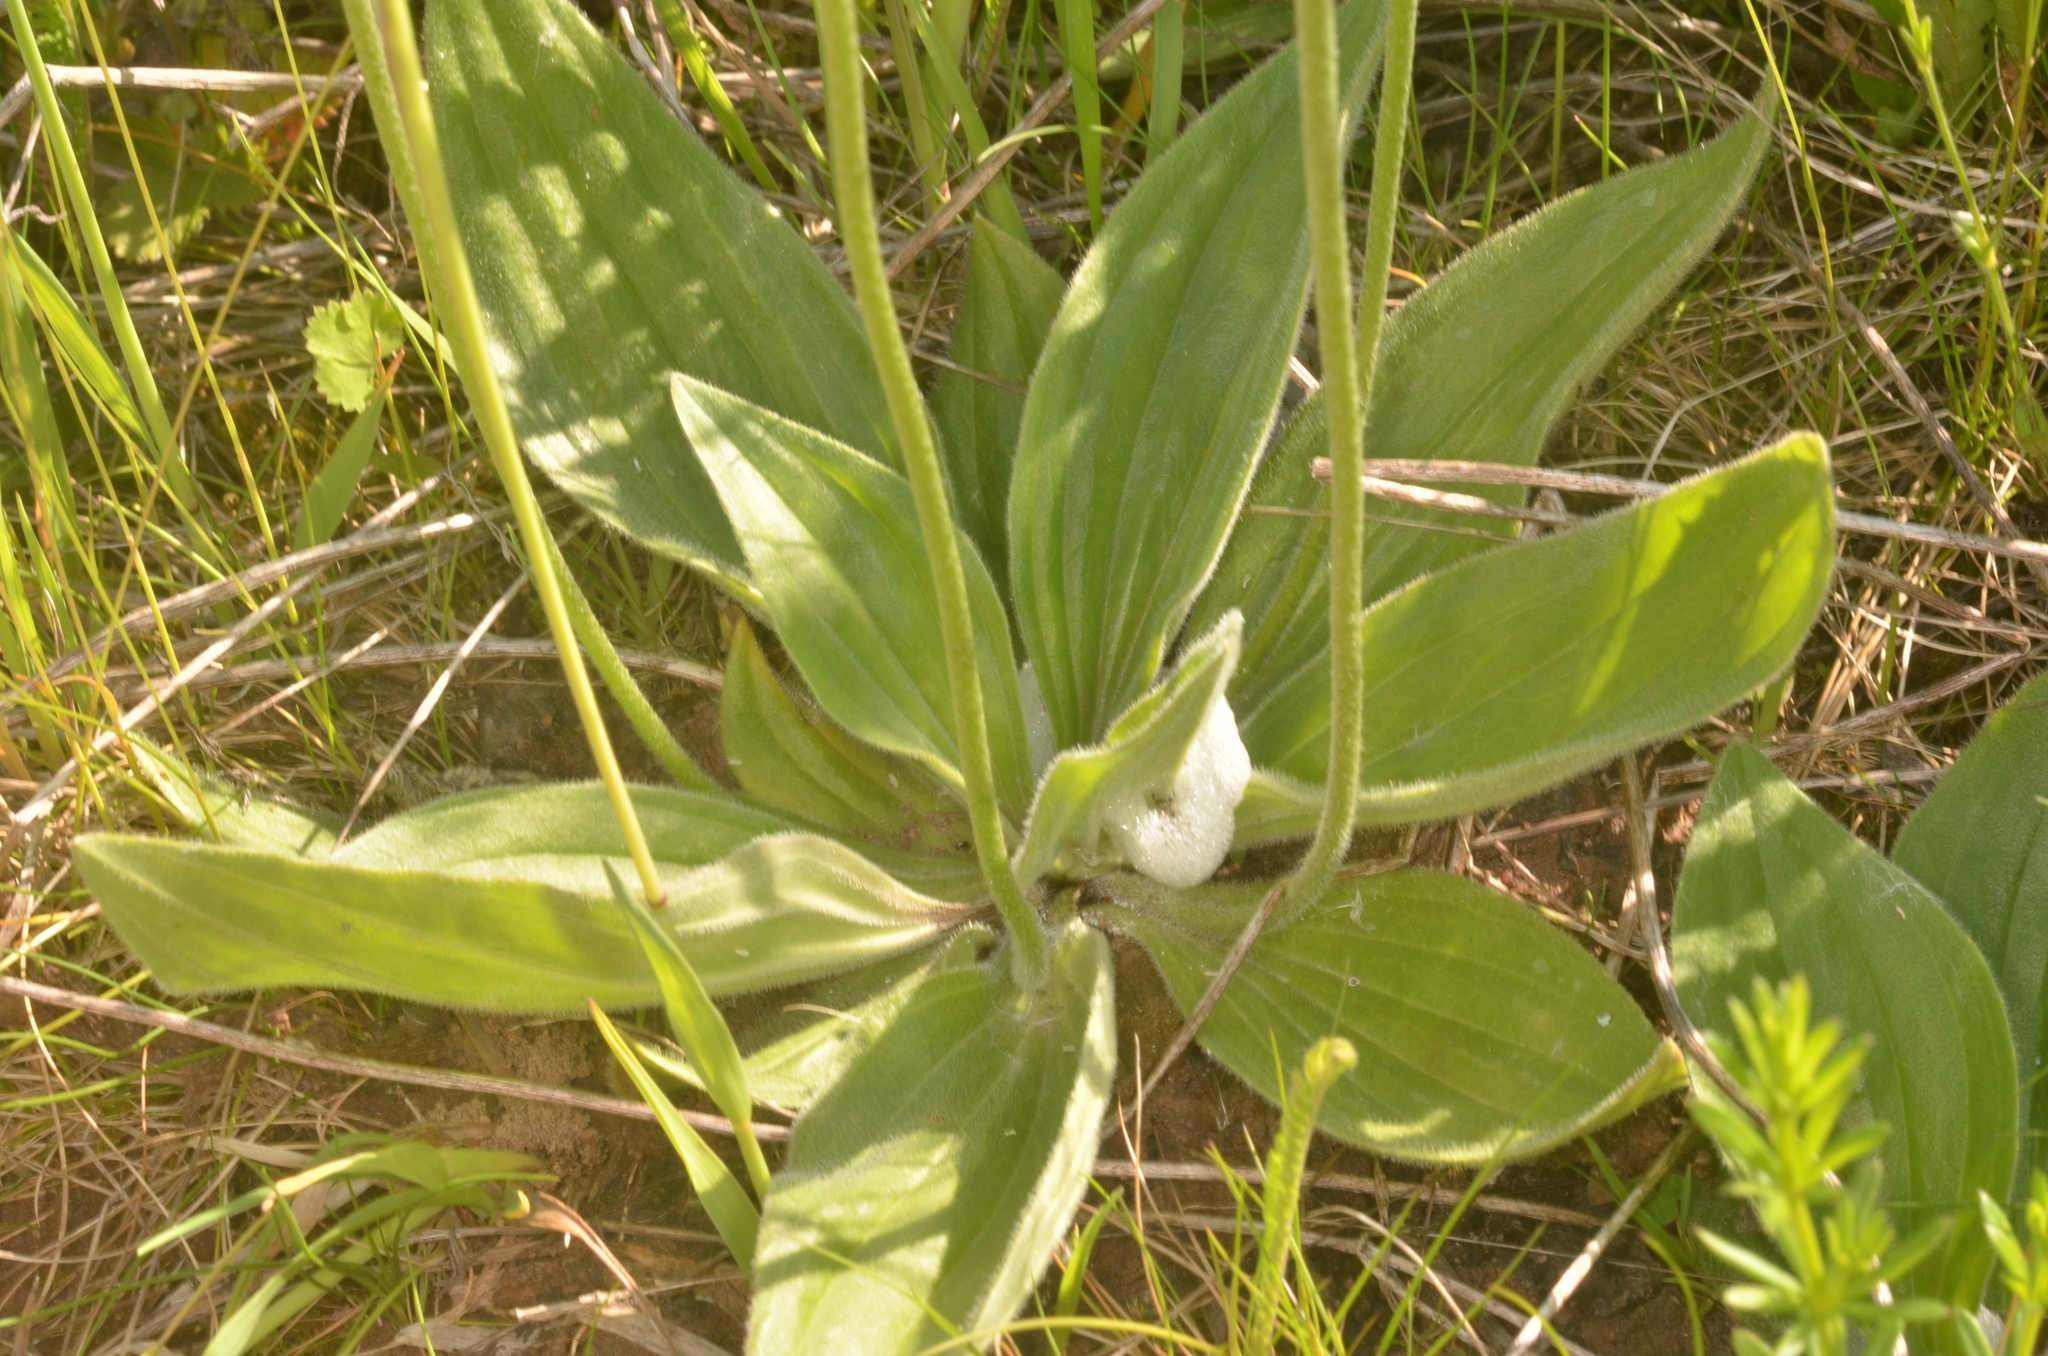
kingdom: Plantae
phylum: Tracheophyta
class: Magnoliopsida
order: Lamiales
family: Plantaginaceae
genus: Plantago
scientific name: Plantago media
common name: Hoary plantain
